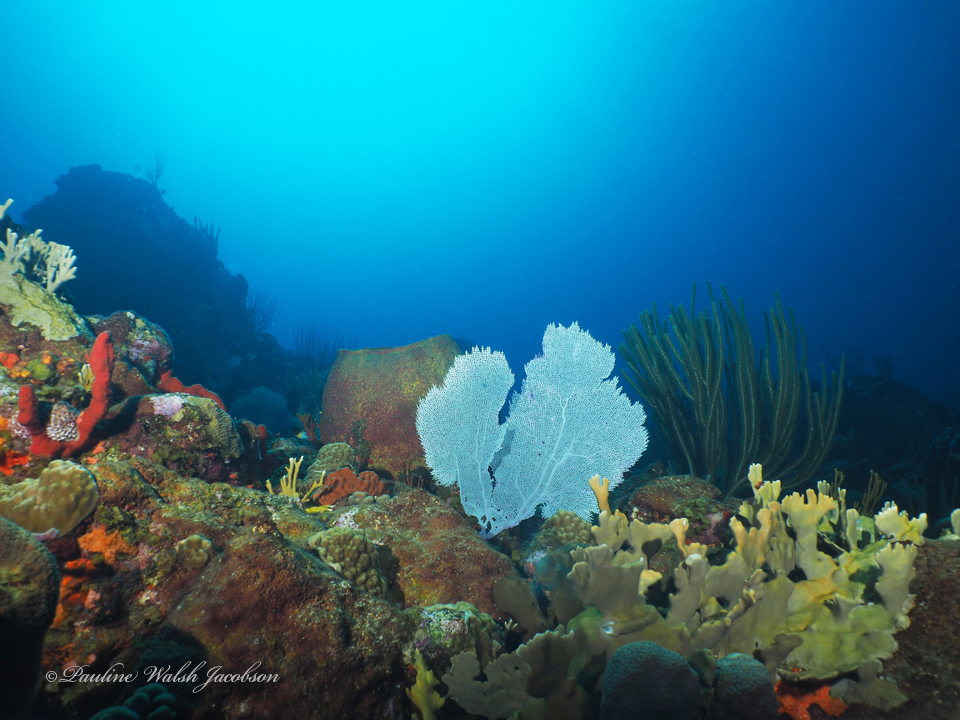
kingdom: Animalia
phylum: Cnidaria
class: Hydrozoa
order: Anthoathecata
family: Milleporidae
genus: Millepora
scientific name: Millepora complanata
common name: Bladed fire coral
